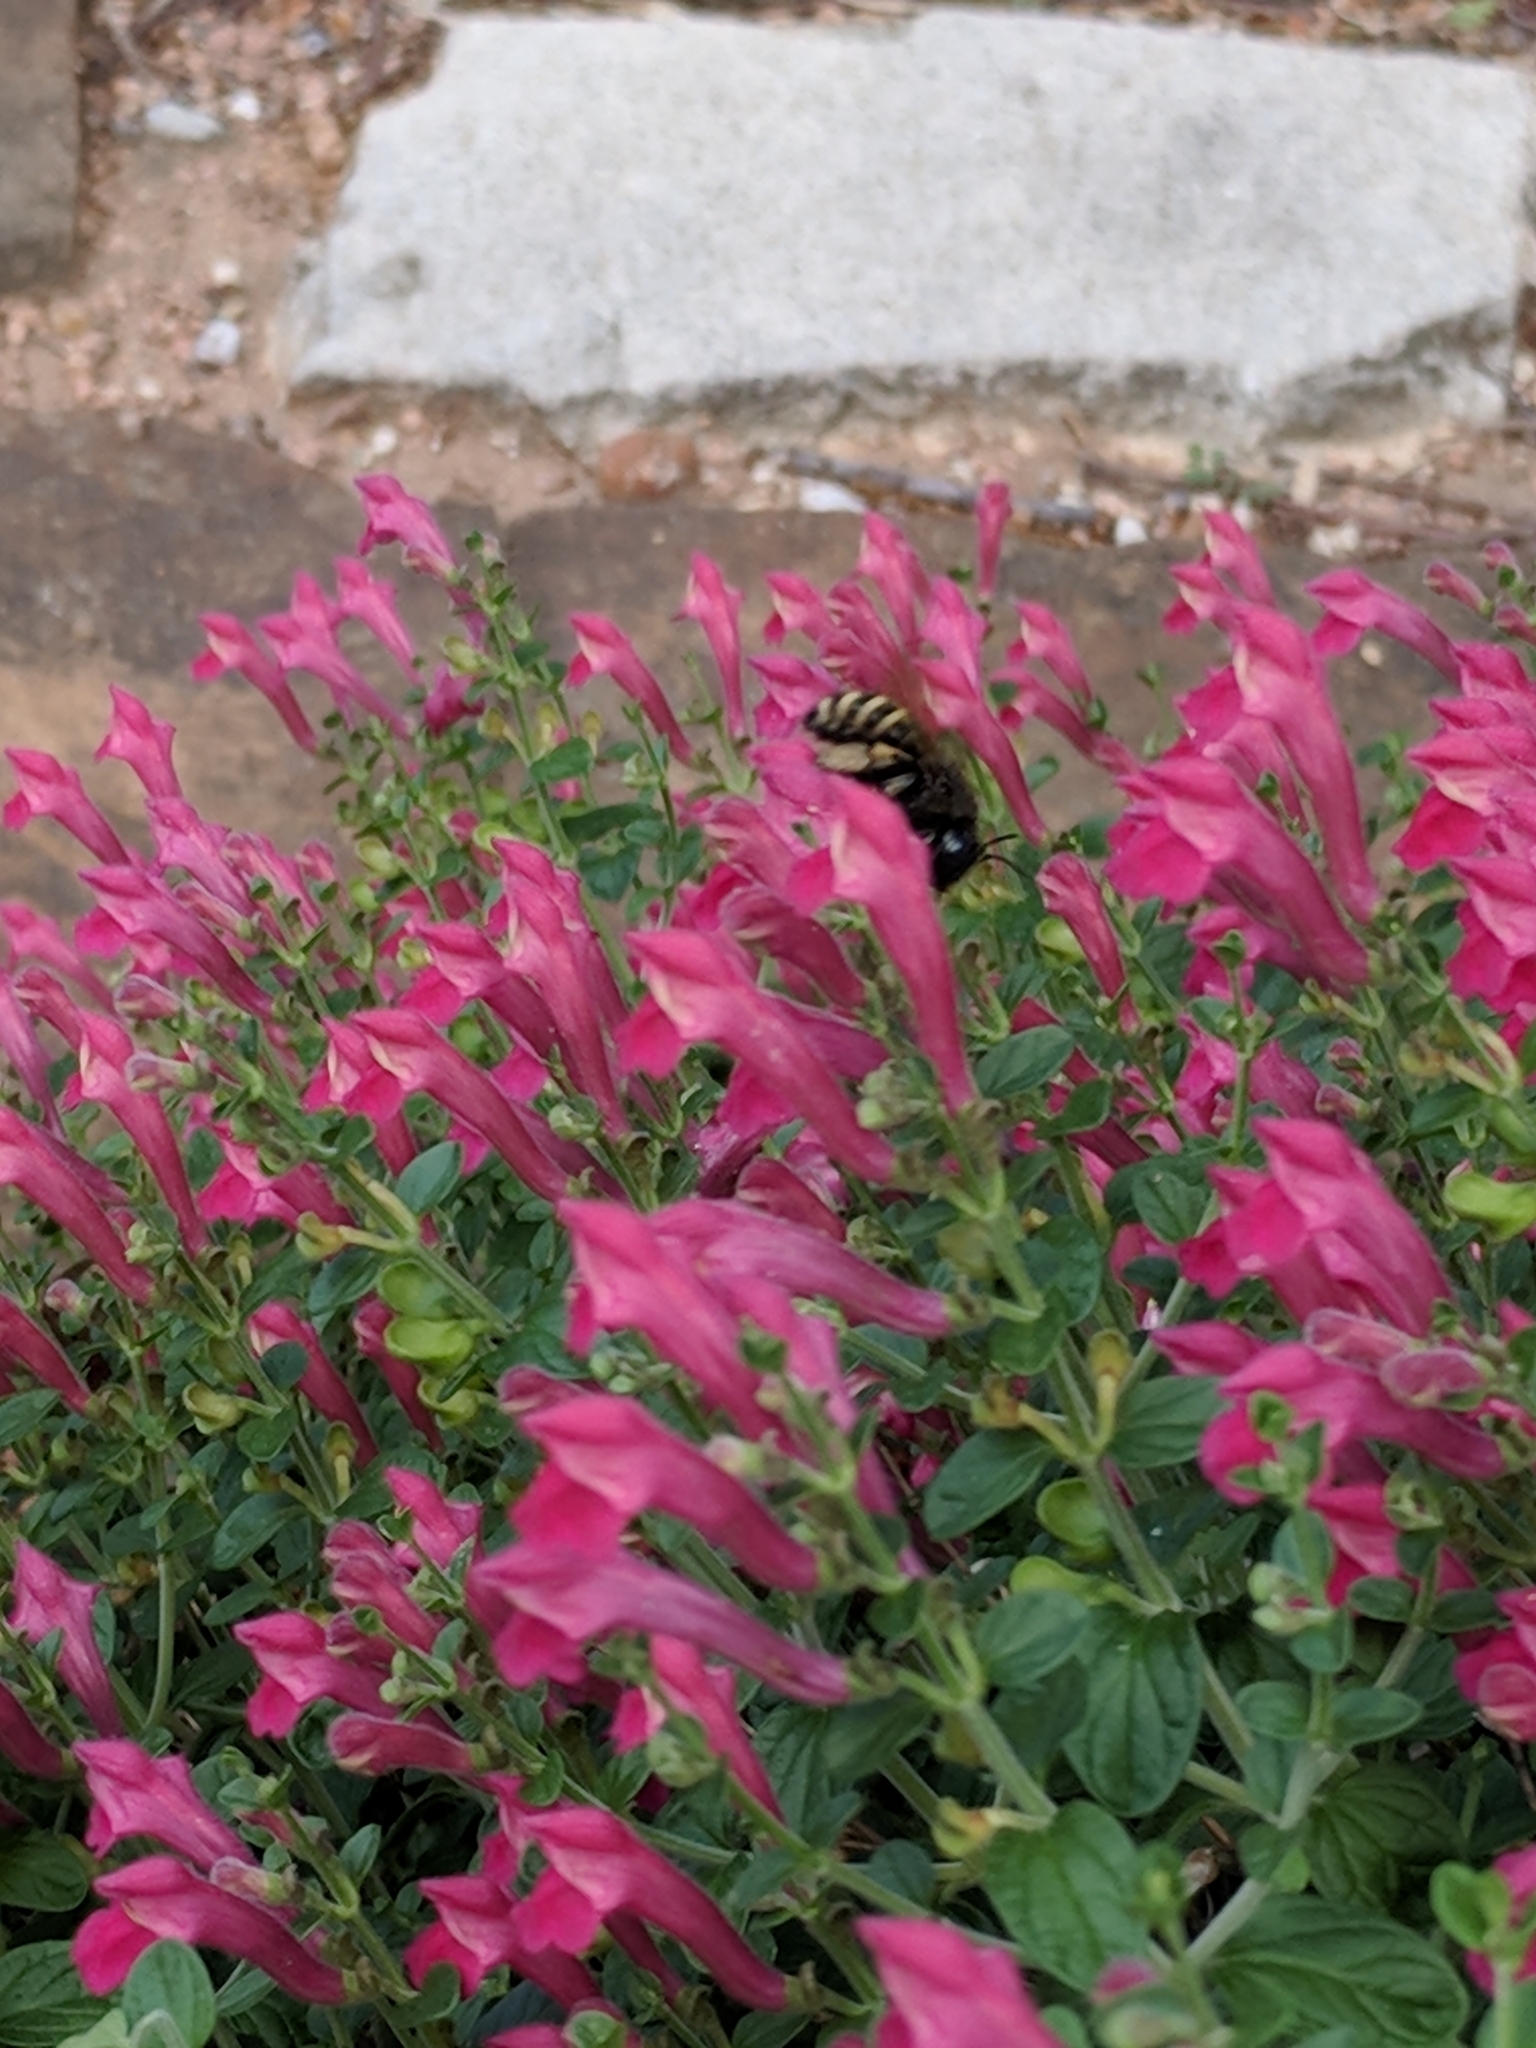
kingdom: Animalia
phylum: Arthropoda
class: Insecta
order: Hymenoptera
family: Apidae
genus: Xylocopa
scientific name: Xylocopa tabaniformis
